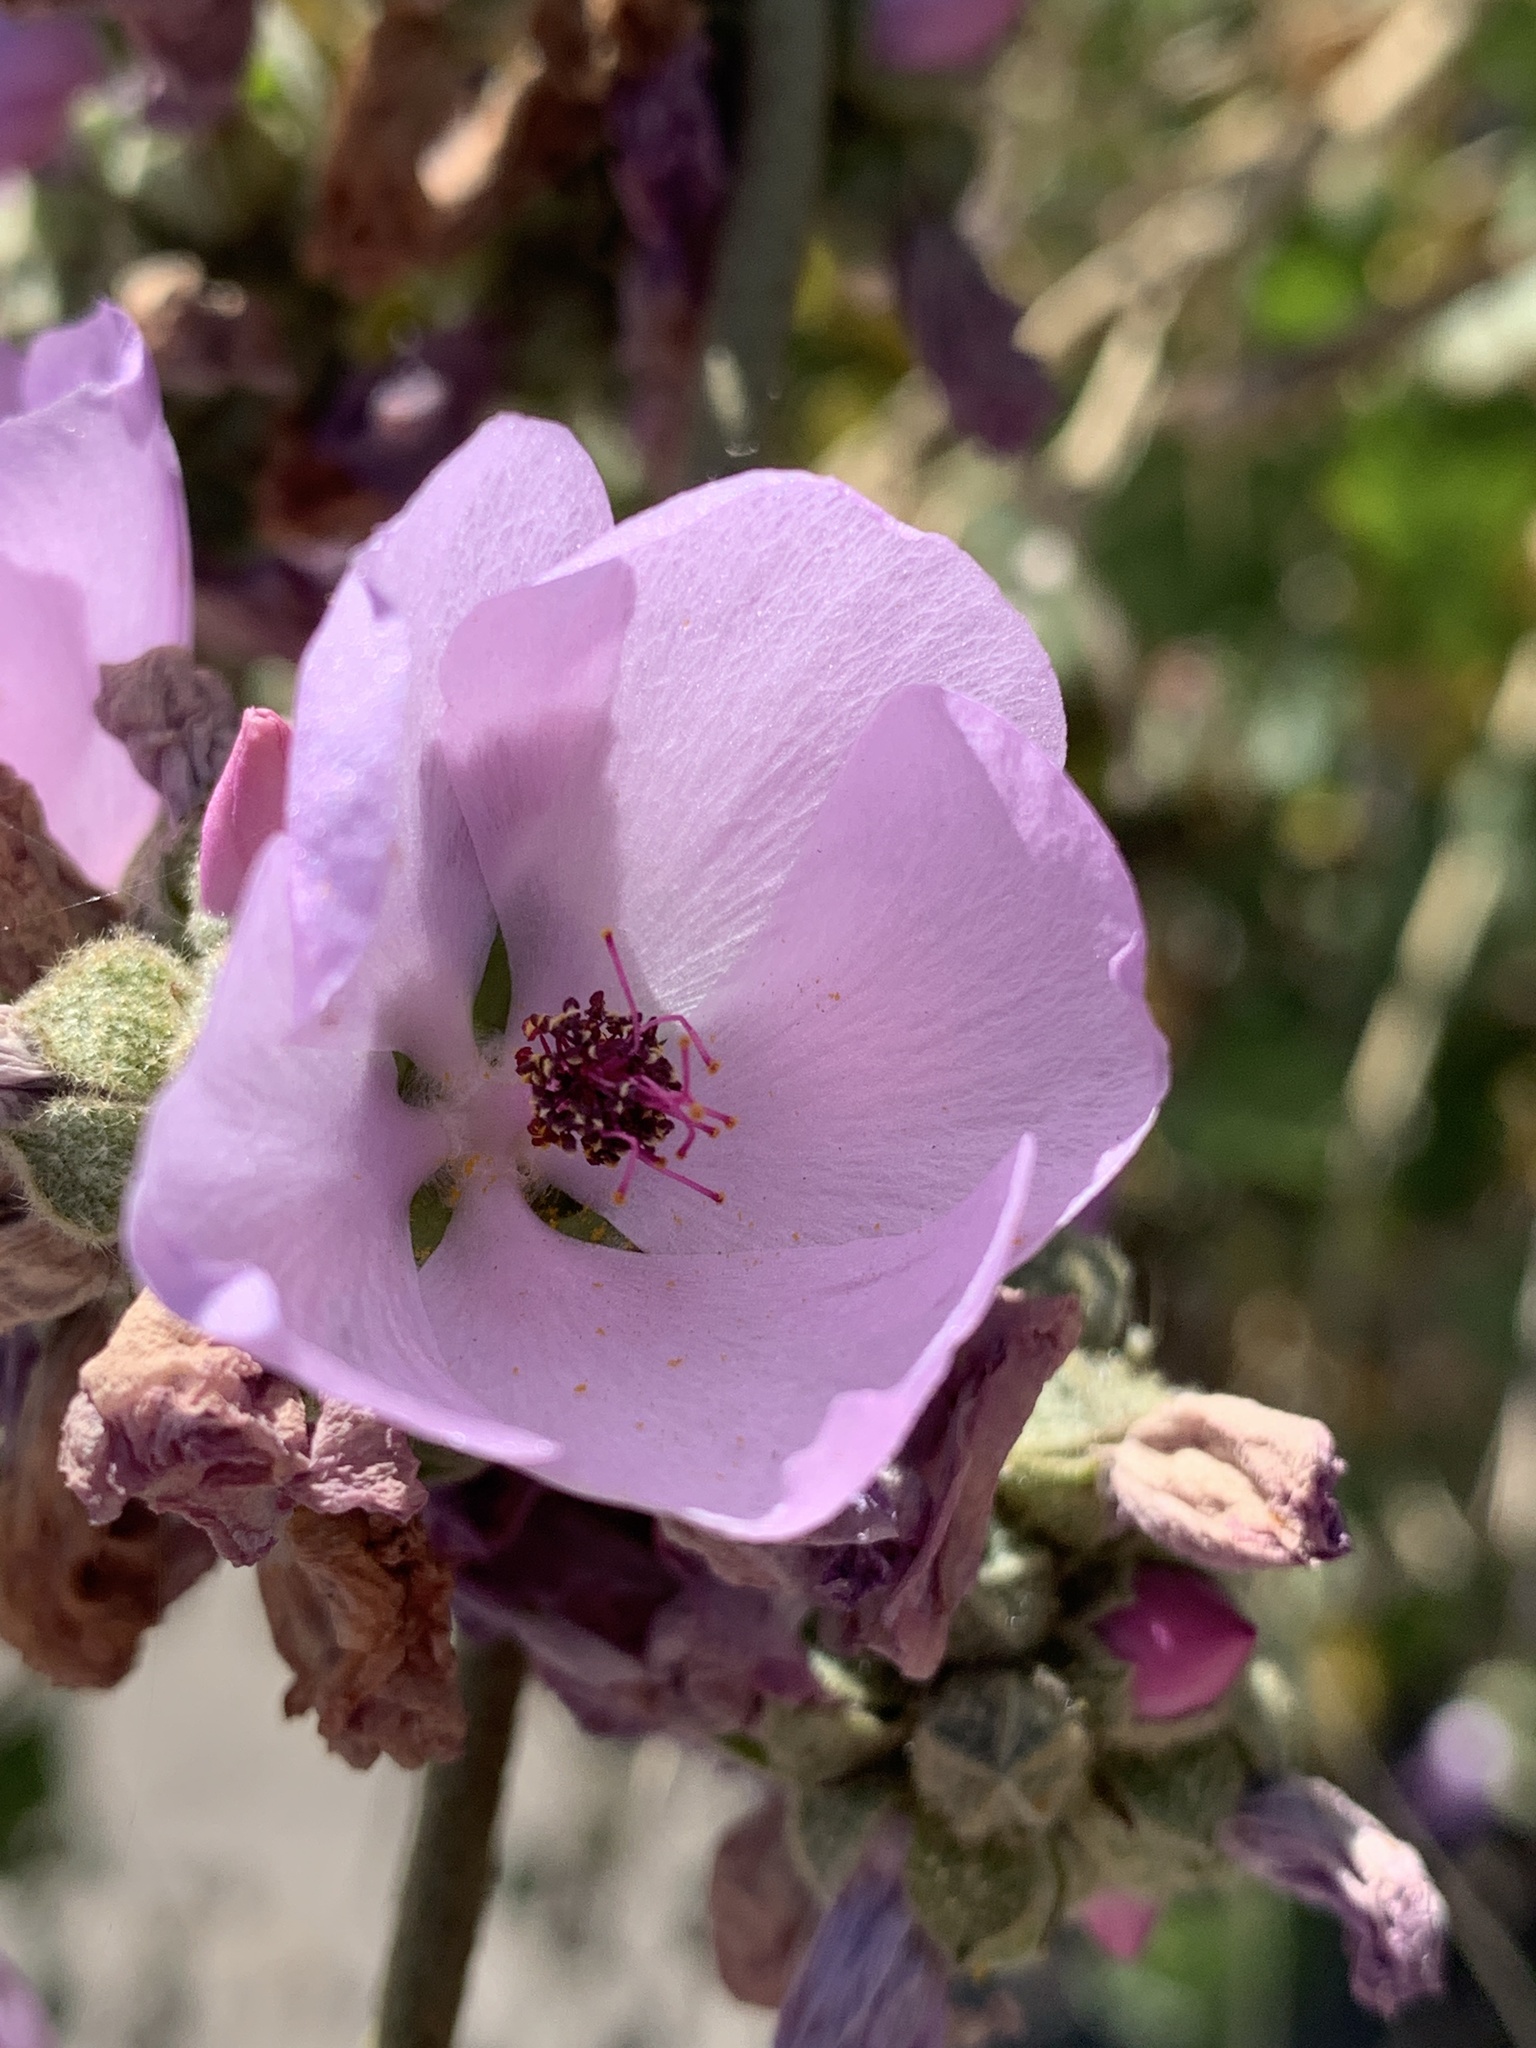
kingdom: Plantae
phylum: Tracheophyta
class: Magnoliopsida
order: Malvales
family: Malvaceae
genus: Malacothamnus
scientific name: Malacothamnus fasciculatus
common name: Sant cruz island bush-mallow
